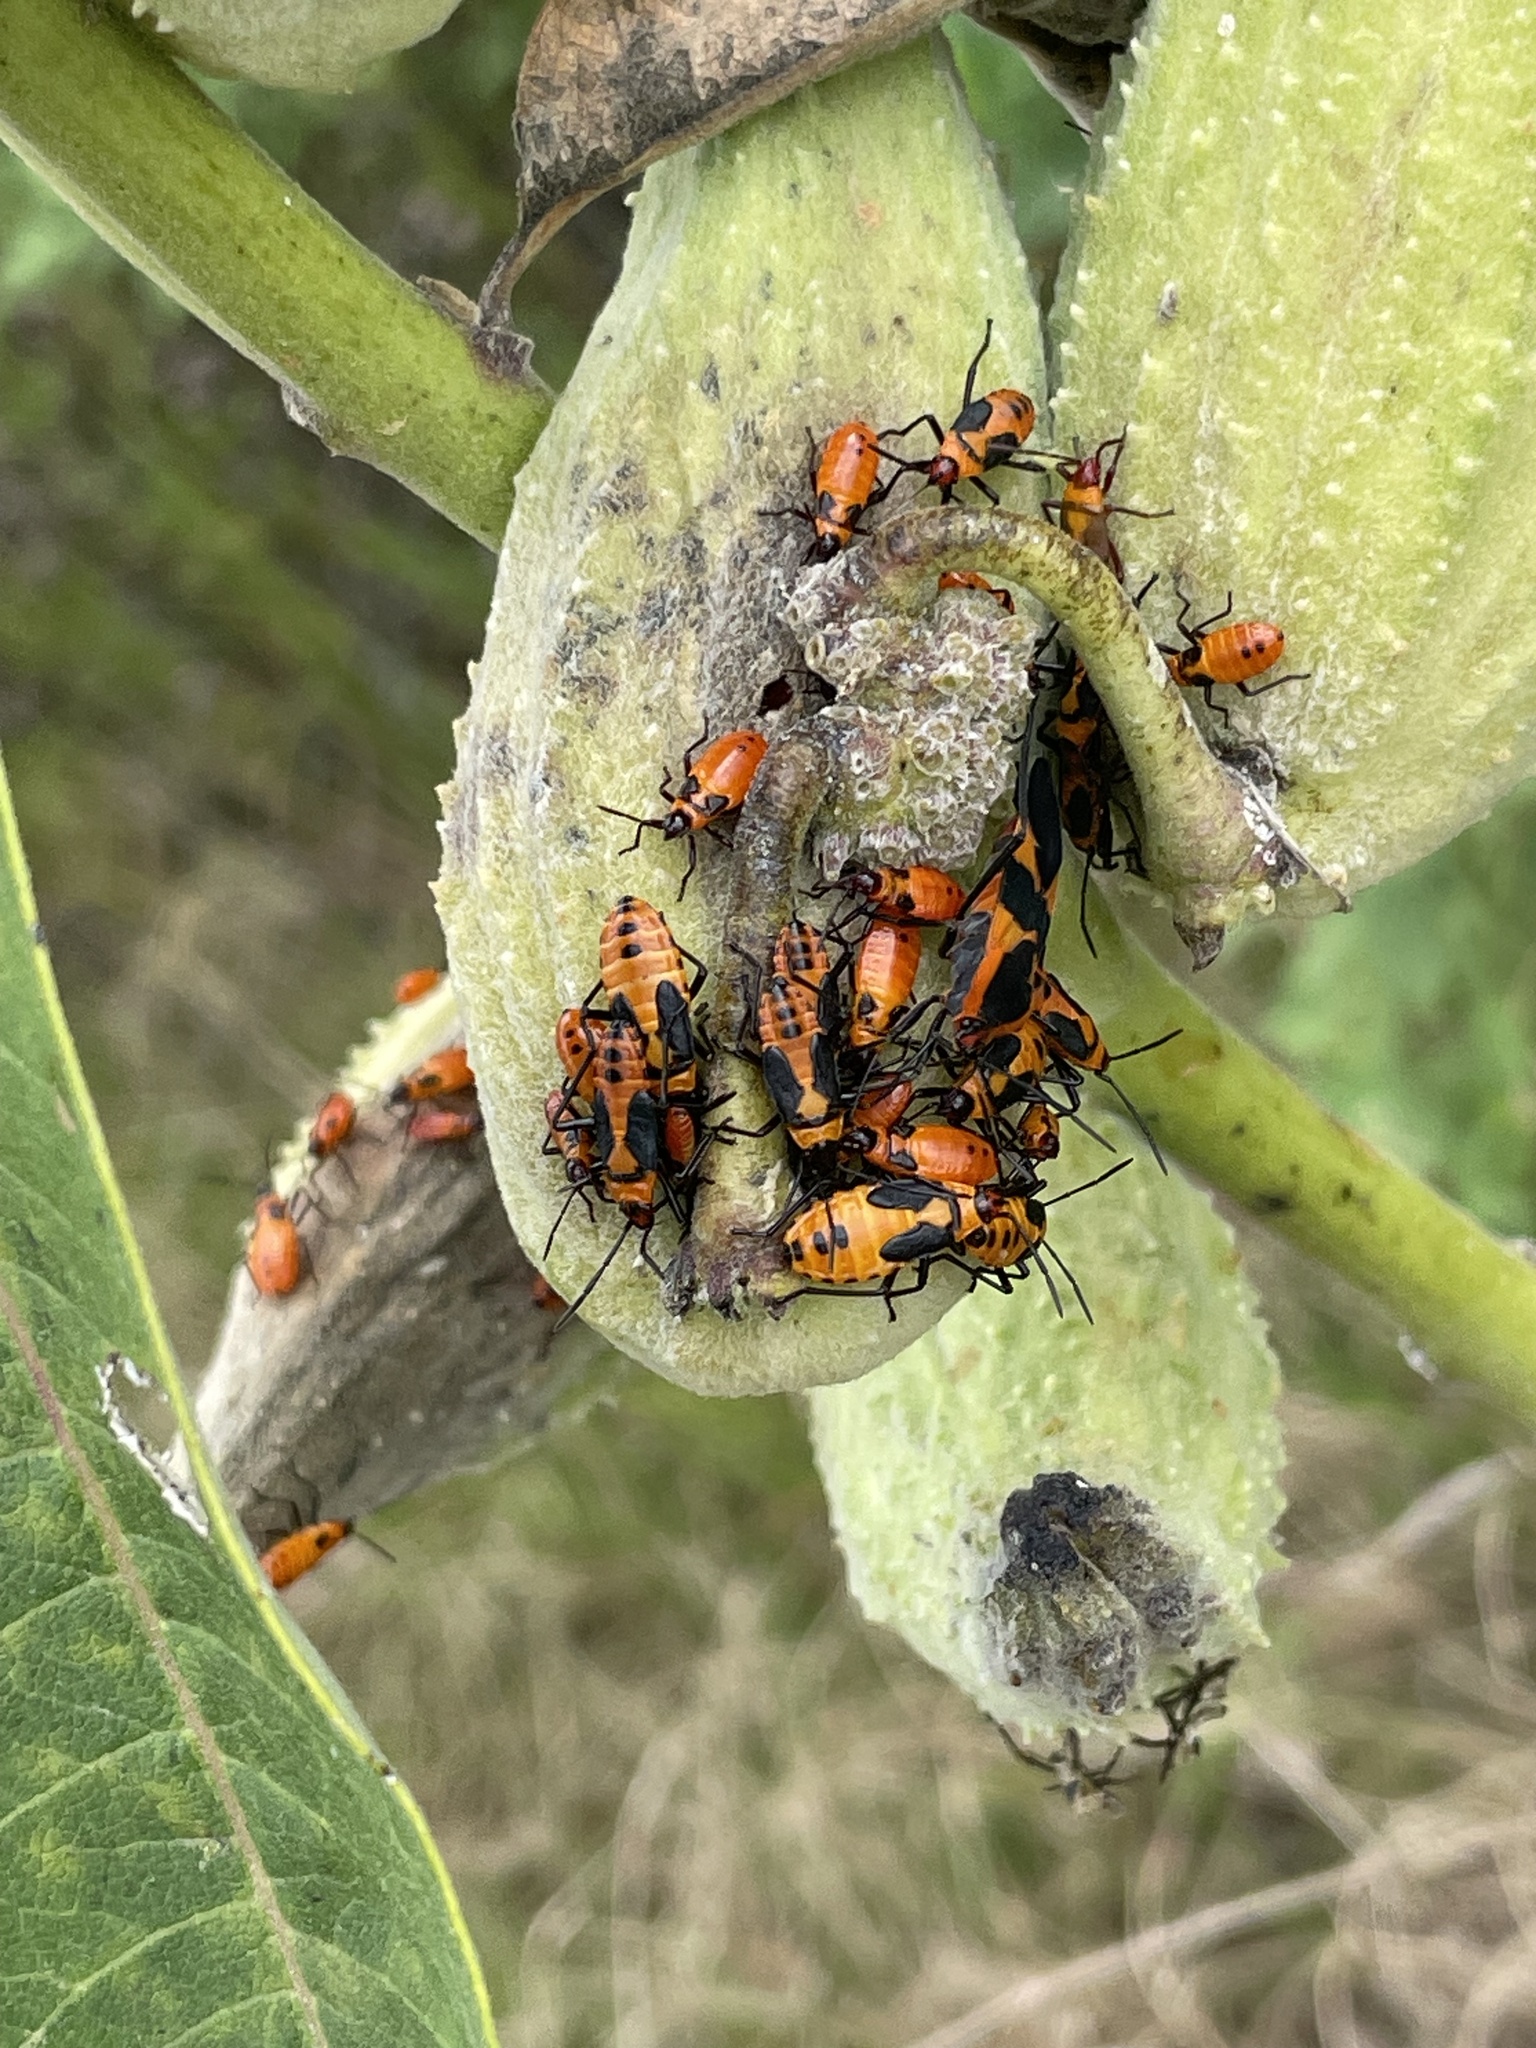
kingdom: Animalia
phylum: Arthropoda
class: Insecta
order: Hemiptera
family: Lygaeidae
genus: Oncopeltus
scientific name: Oncopeltus fasciatus
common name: Large milkweed bug
